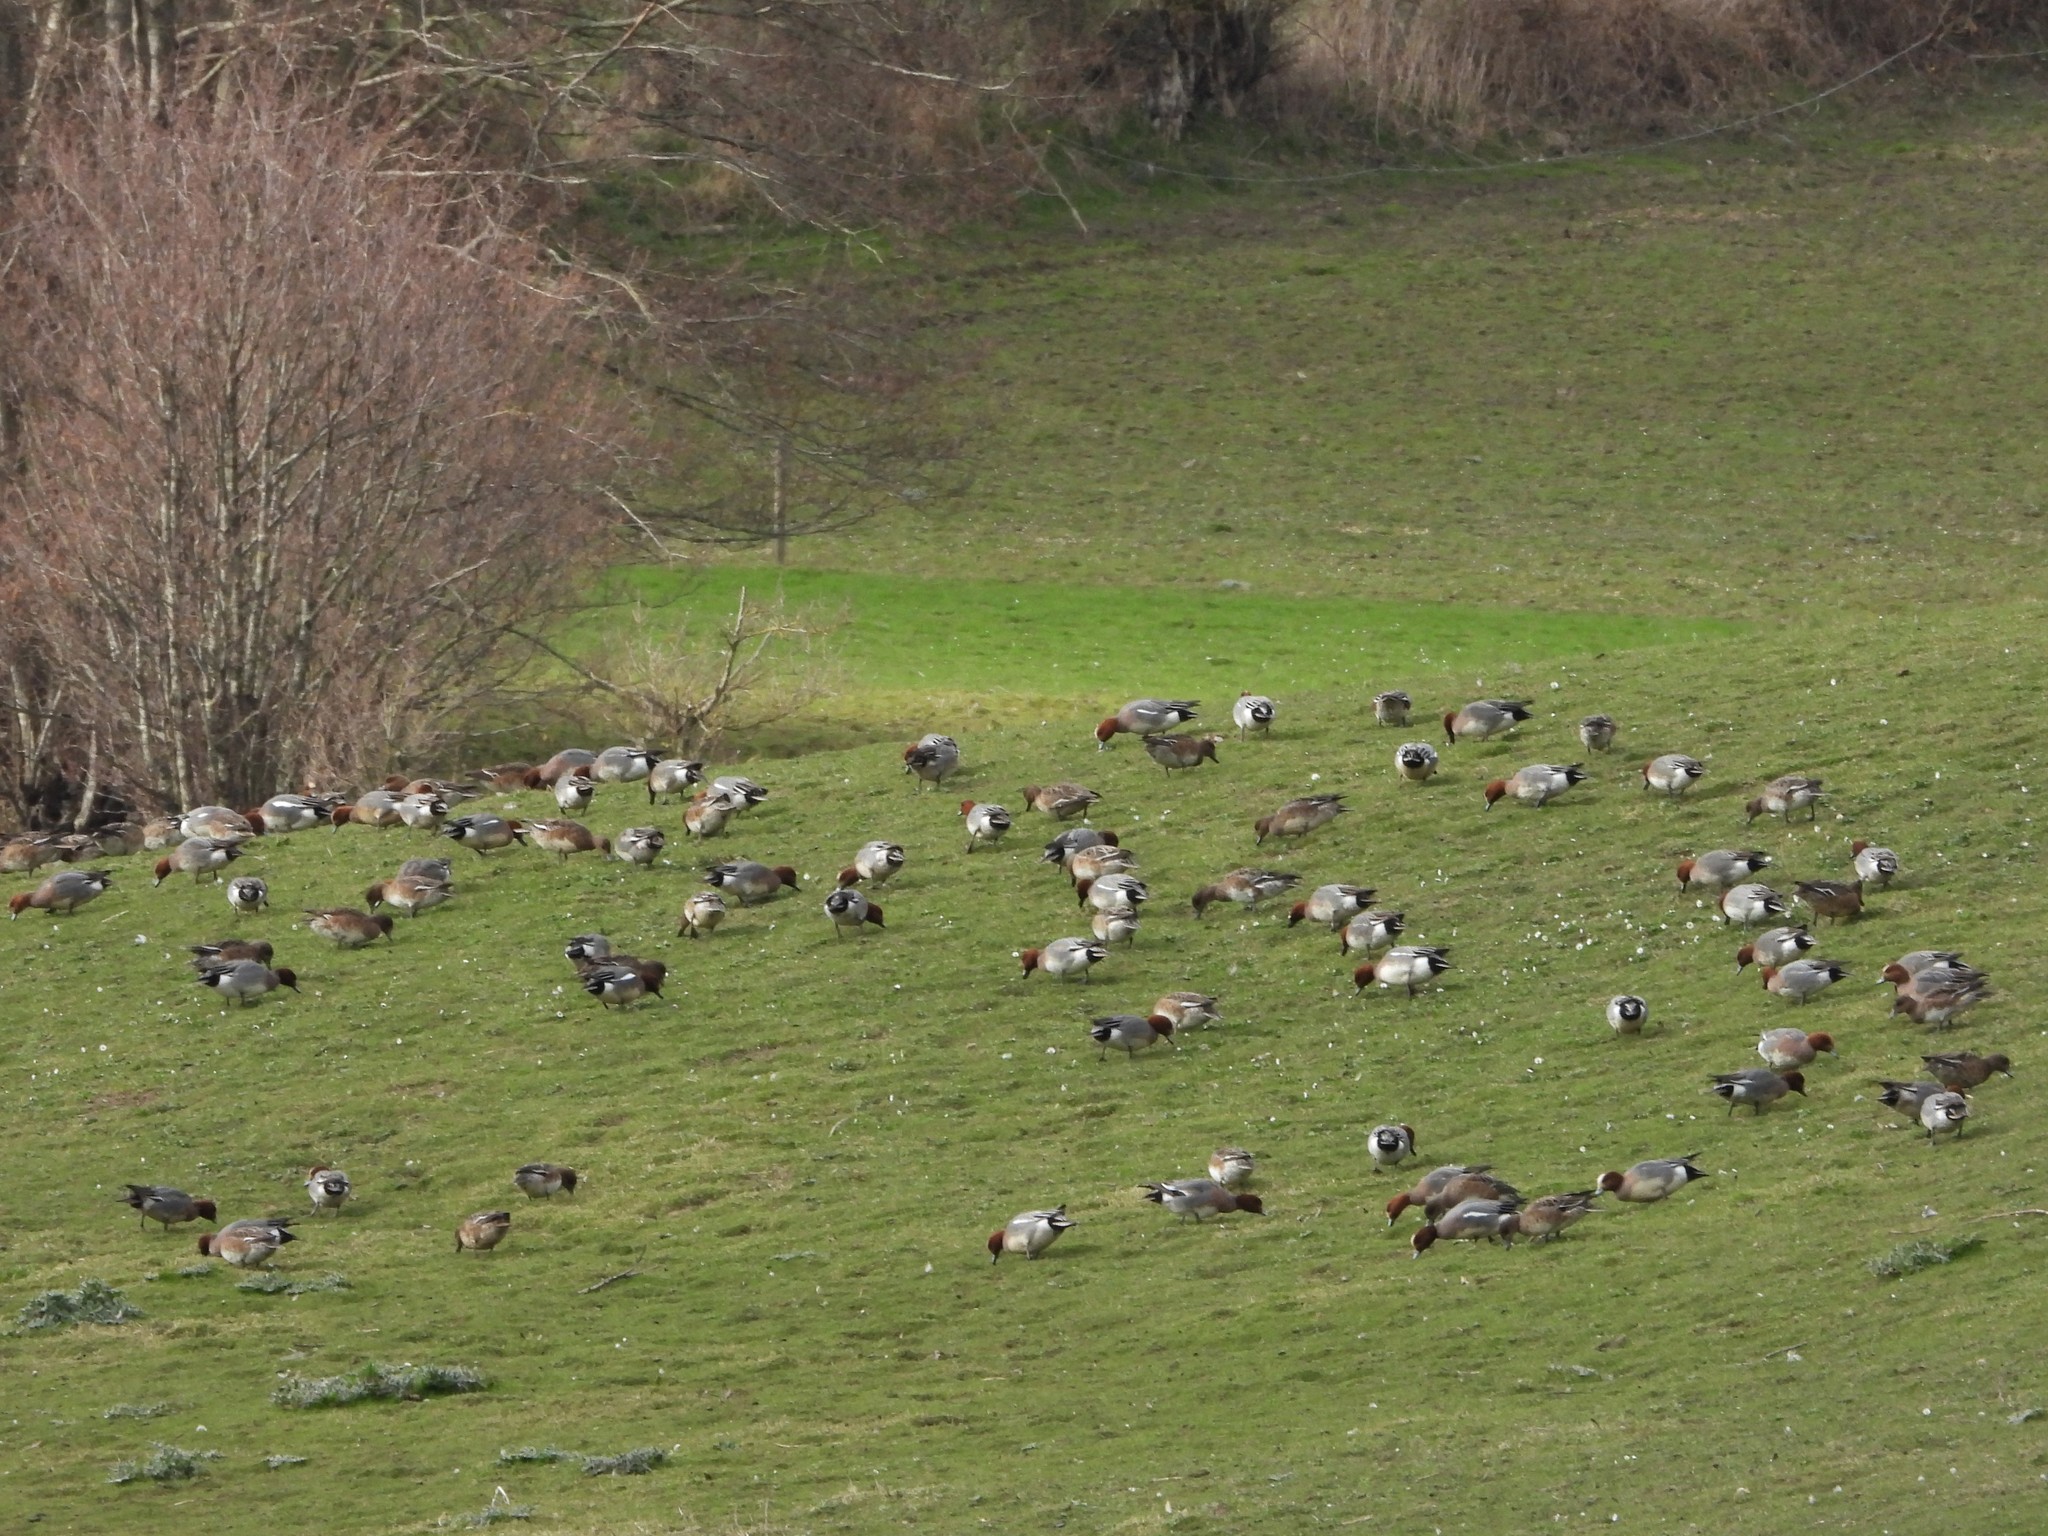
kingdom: Animalia
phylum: Chordata
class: Aves
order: Anseriformes
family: Anatidae
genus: Mareca
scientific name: Mareca penelope
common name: Eurasian wigeon
